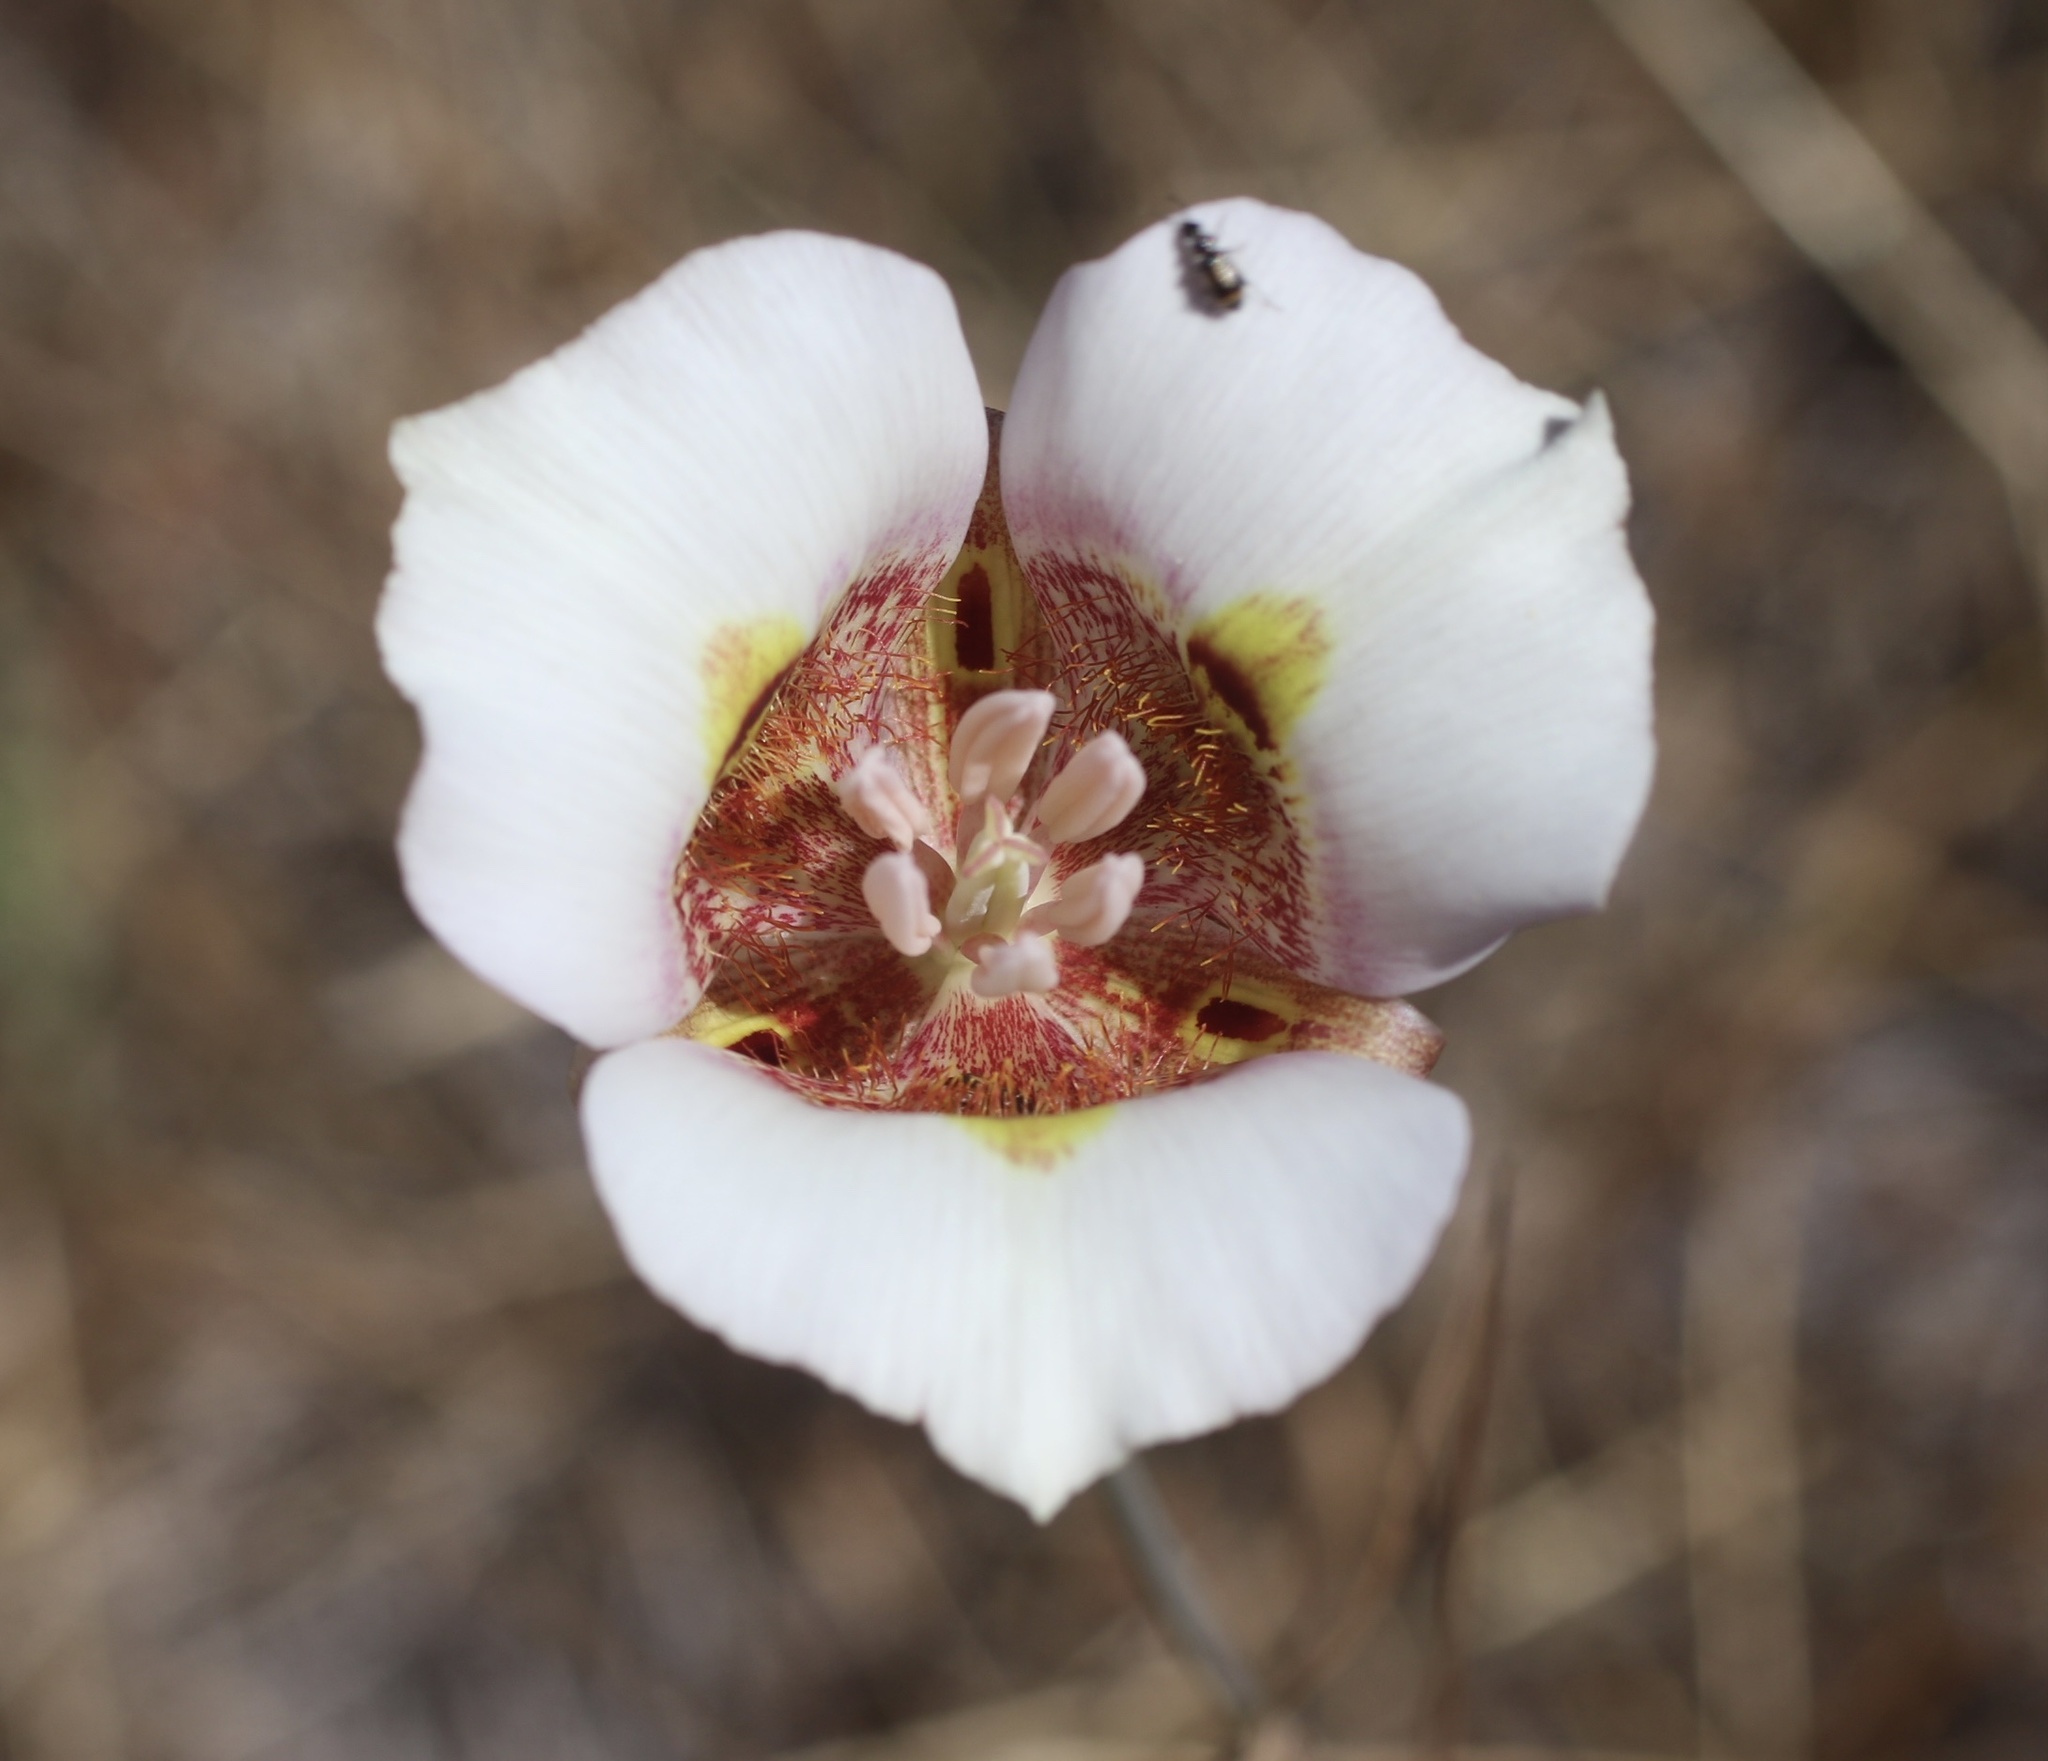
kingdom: Plantae
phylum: Tracheophyta
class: Liliopsida
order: Liliales
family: Liliaceae
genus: Calochortus
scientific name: Calochortus argillosus
